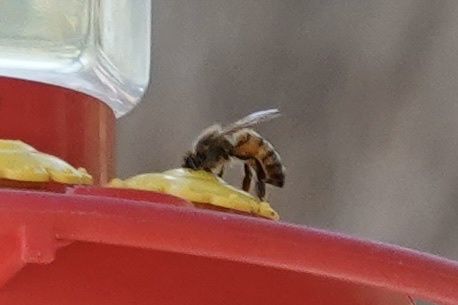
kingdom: Animalia
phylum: Arthropoda
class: Insecta
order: Hymenoptera
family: Apidae
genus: Apis
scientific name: Apis mellifera
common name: Honey bee
